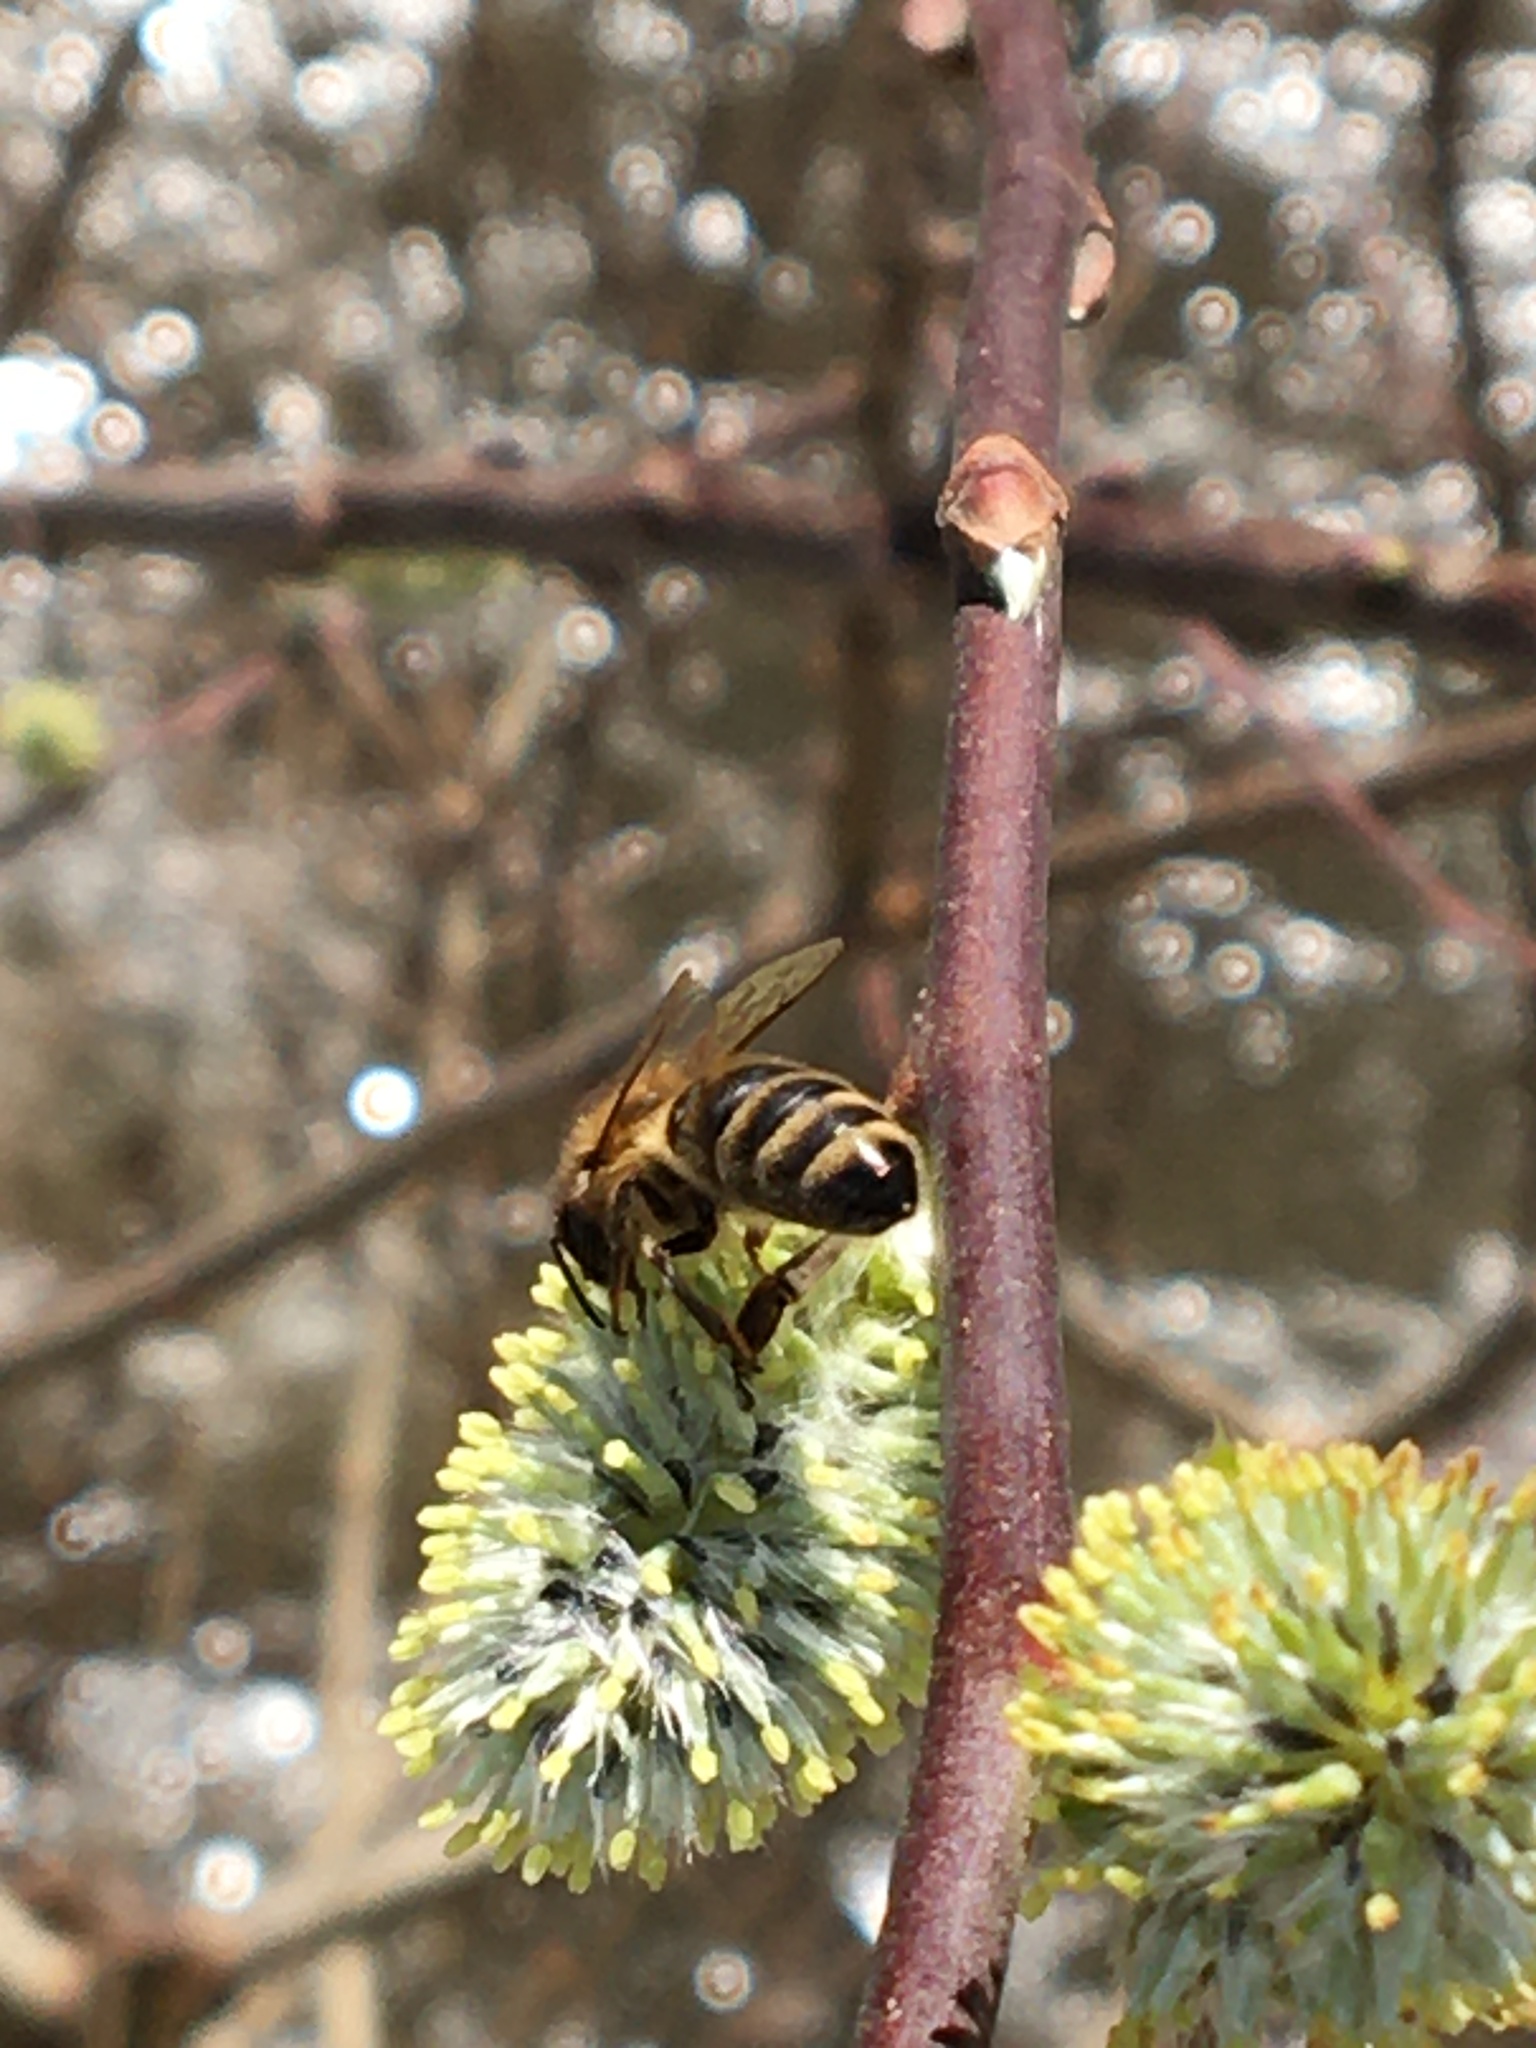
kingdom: Animalia
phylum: Arthropoda
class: Insecta
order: Hymenoptera
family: Apidae
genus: Apis
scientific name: Apis mellifera
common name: Honey bee
